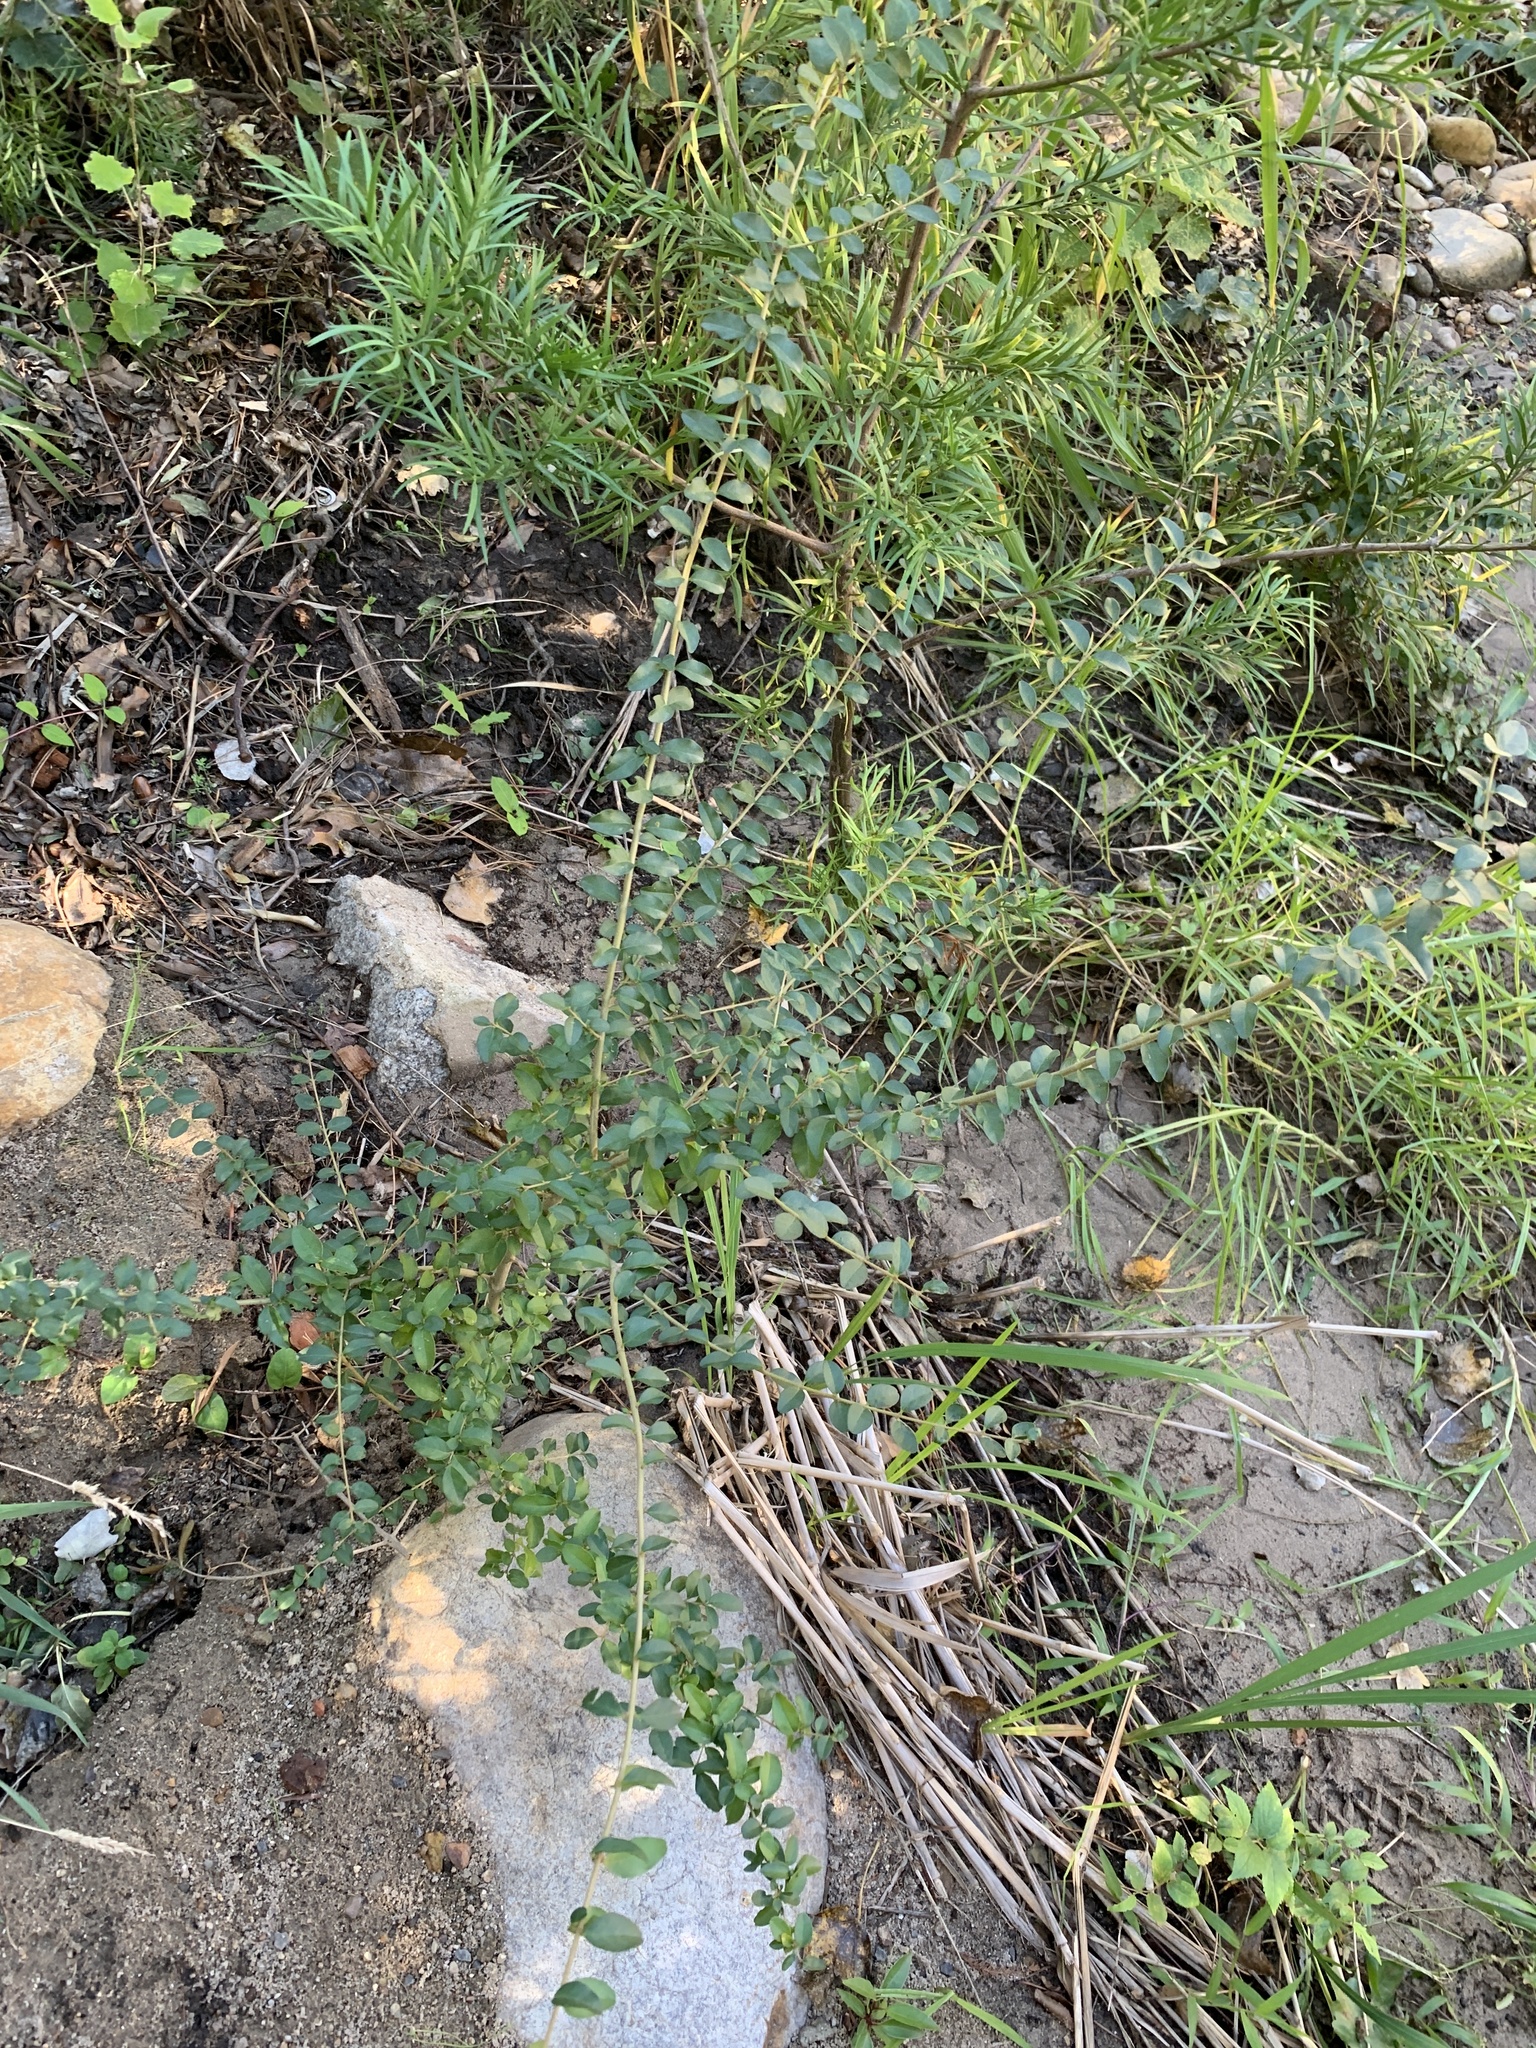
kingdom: Plantae
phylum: Tracheophyta
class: Magnoliopsida
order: Lamiales
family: Oleaceae
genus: Ligustrum
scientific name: Ligustrum sinense
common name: Chinese privet
